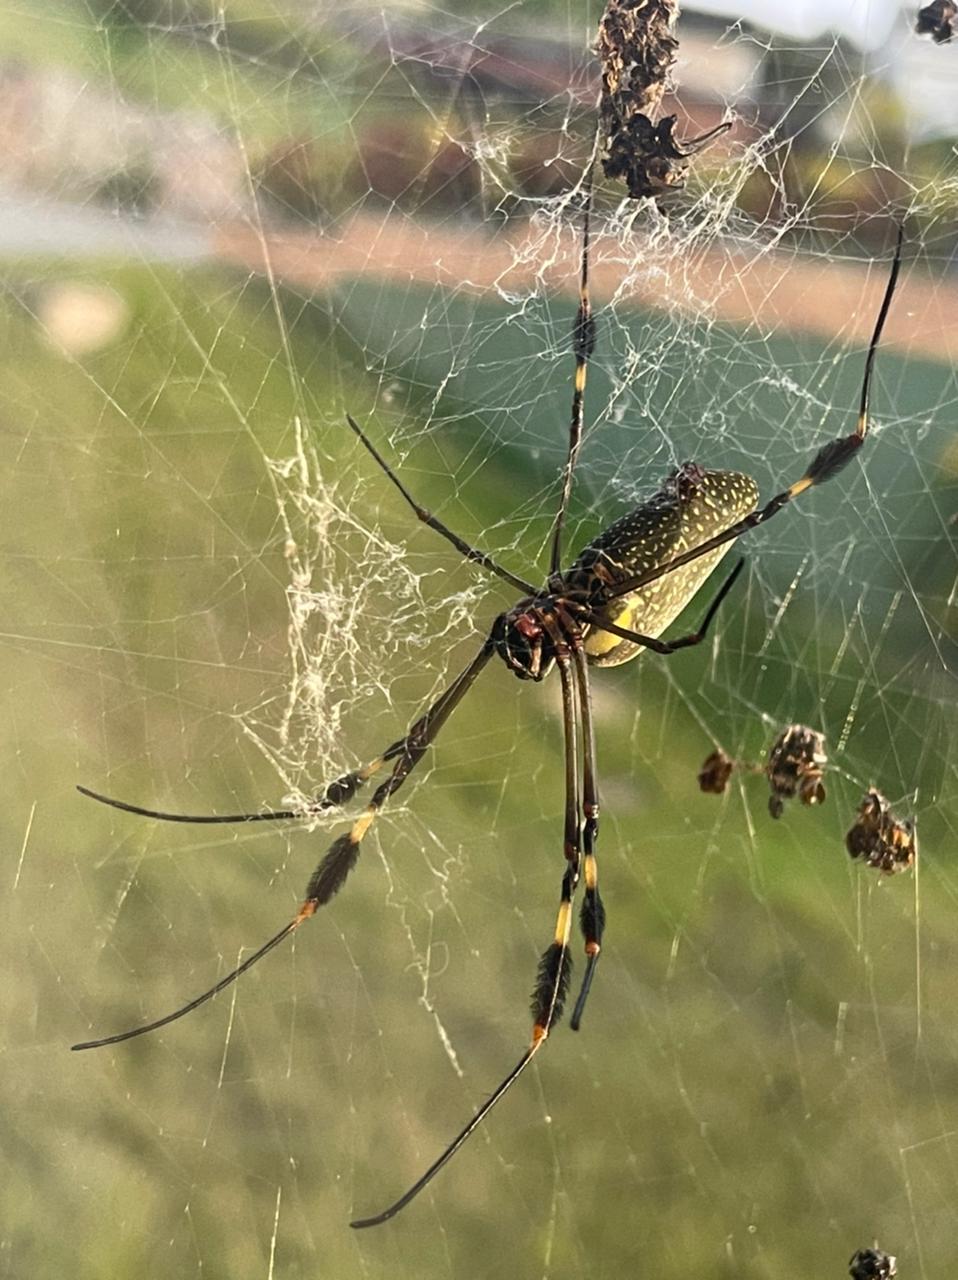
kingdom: Animalia
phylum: Arthropoda
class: Arachnida
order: Araneae
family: Araneidae
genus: Trichonephila
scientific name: Trichonephila clavipes
